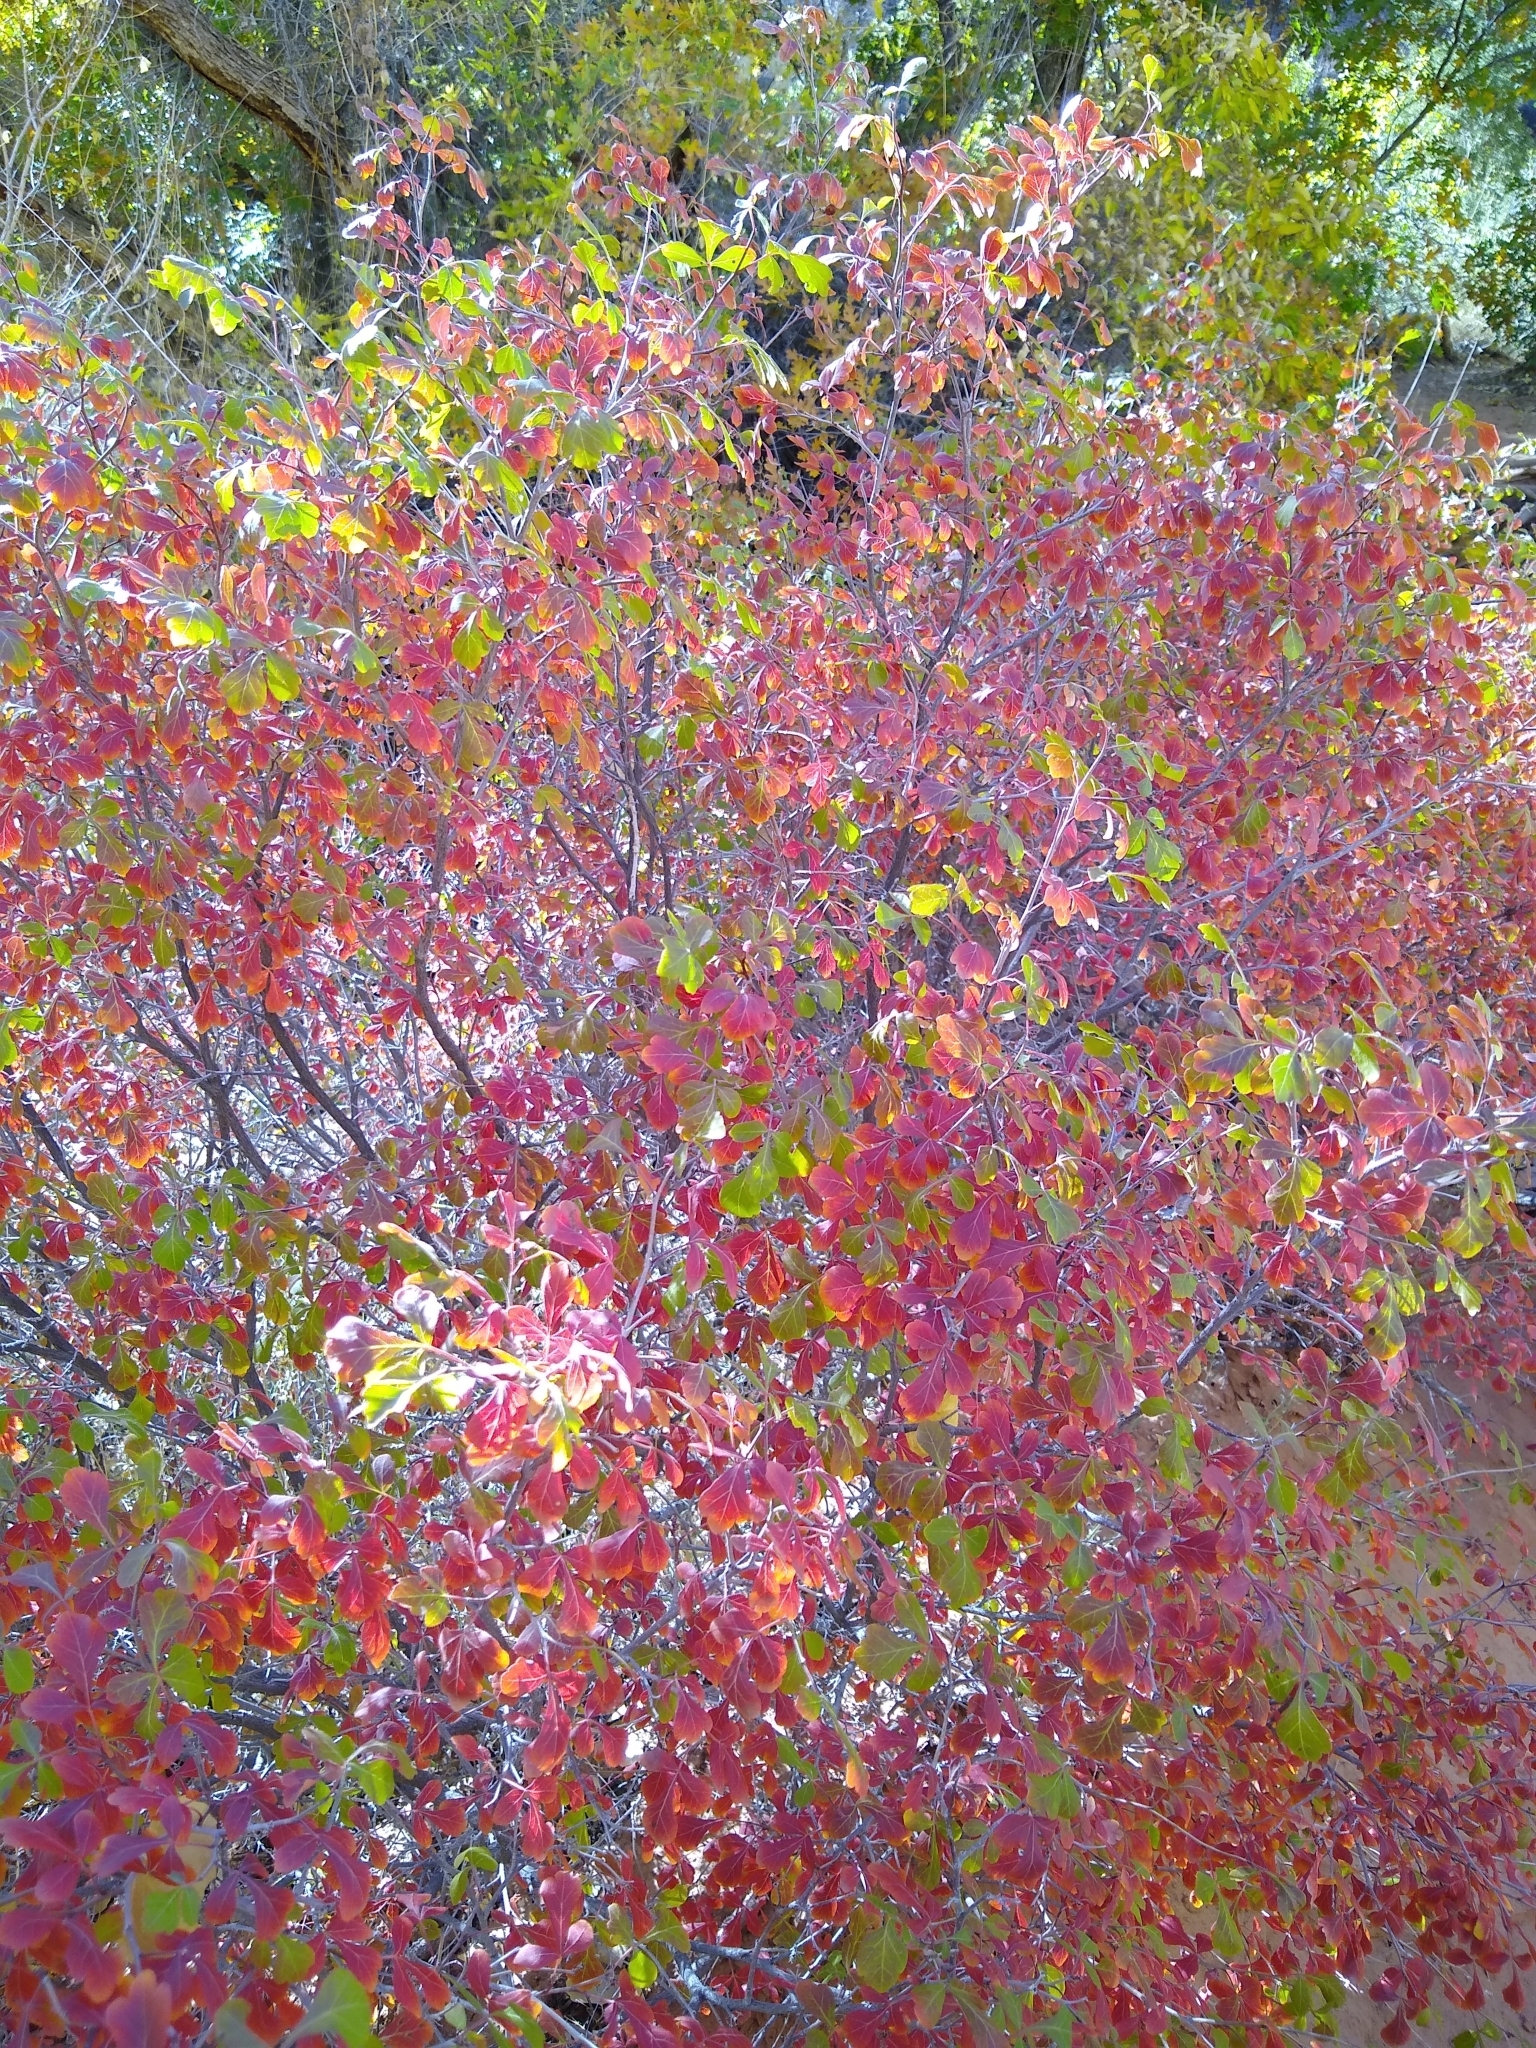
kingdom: Plantae
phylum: Tracheophyta
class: Magnoliopsida
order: Sapindales
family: Anacardiaceae
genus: Rhus
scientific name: Rhus trilobata
